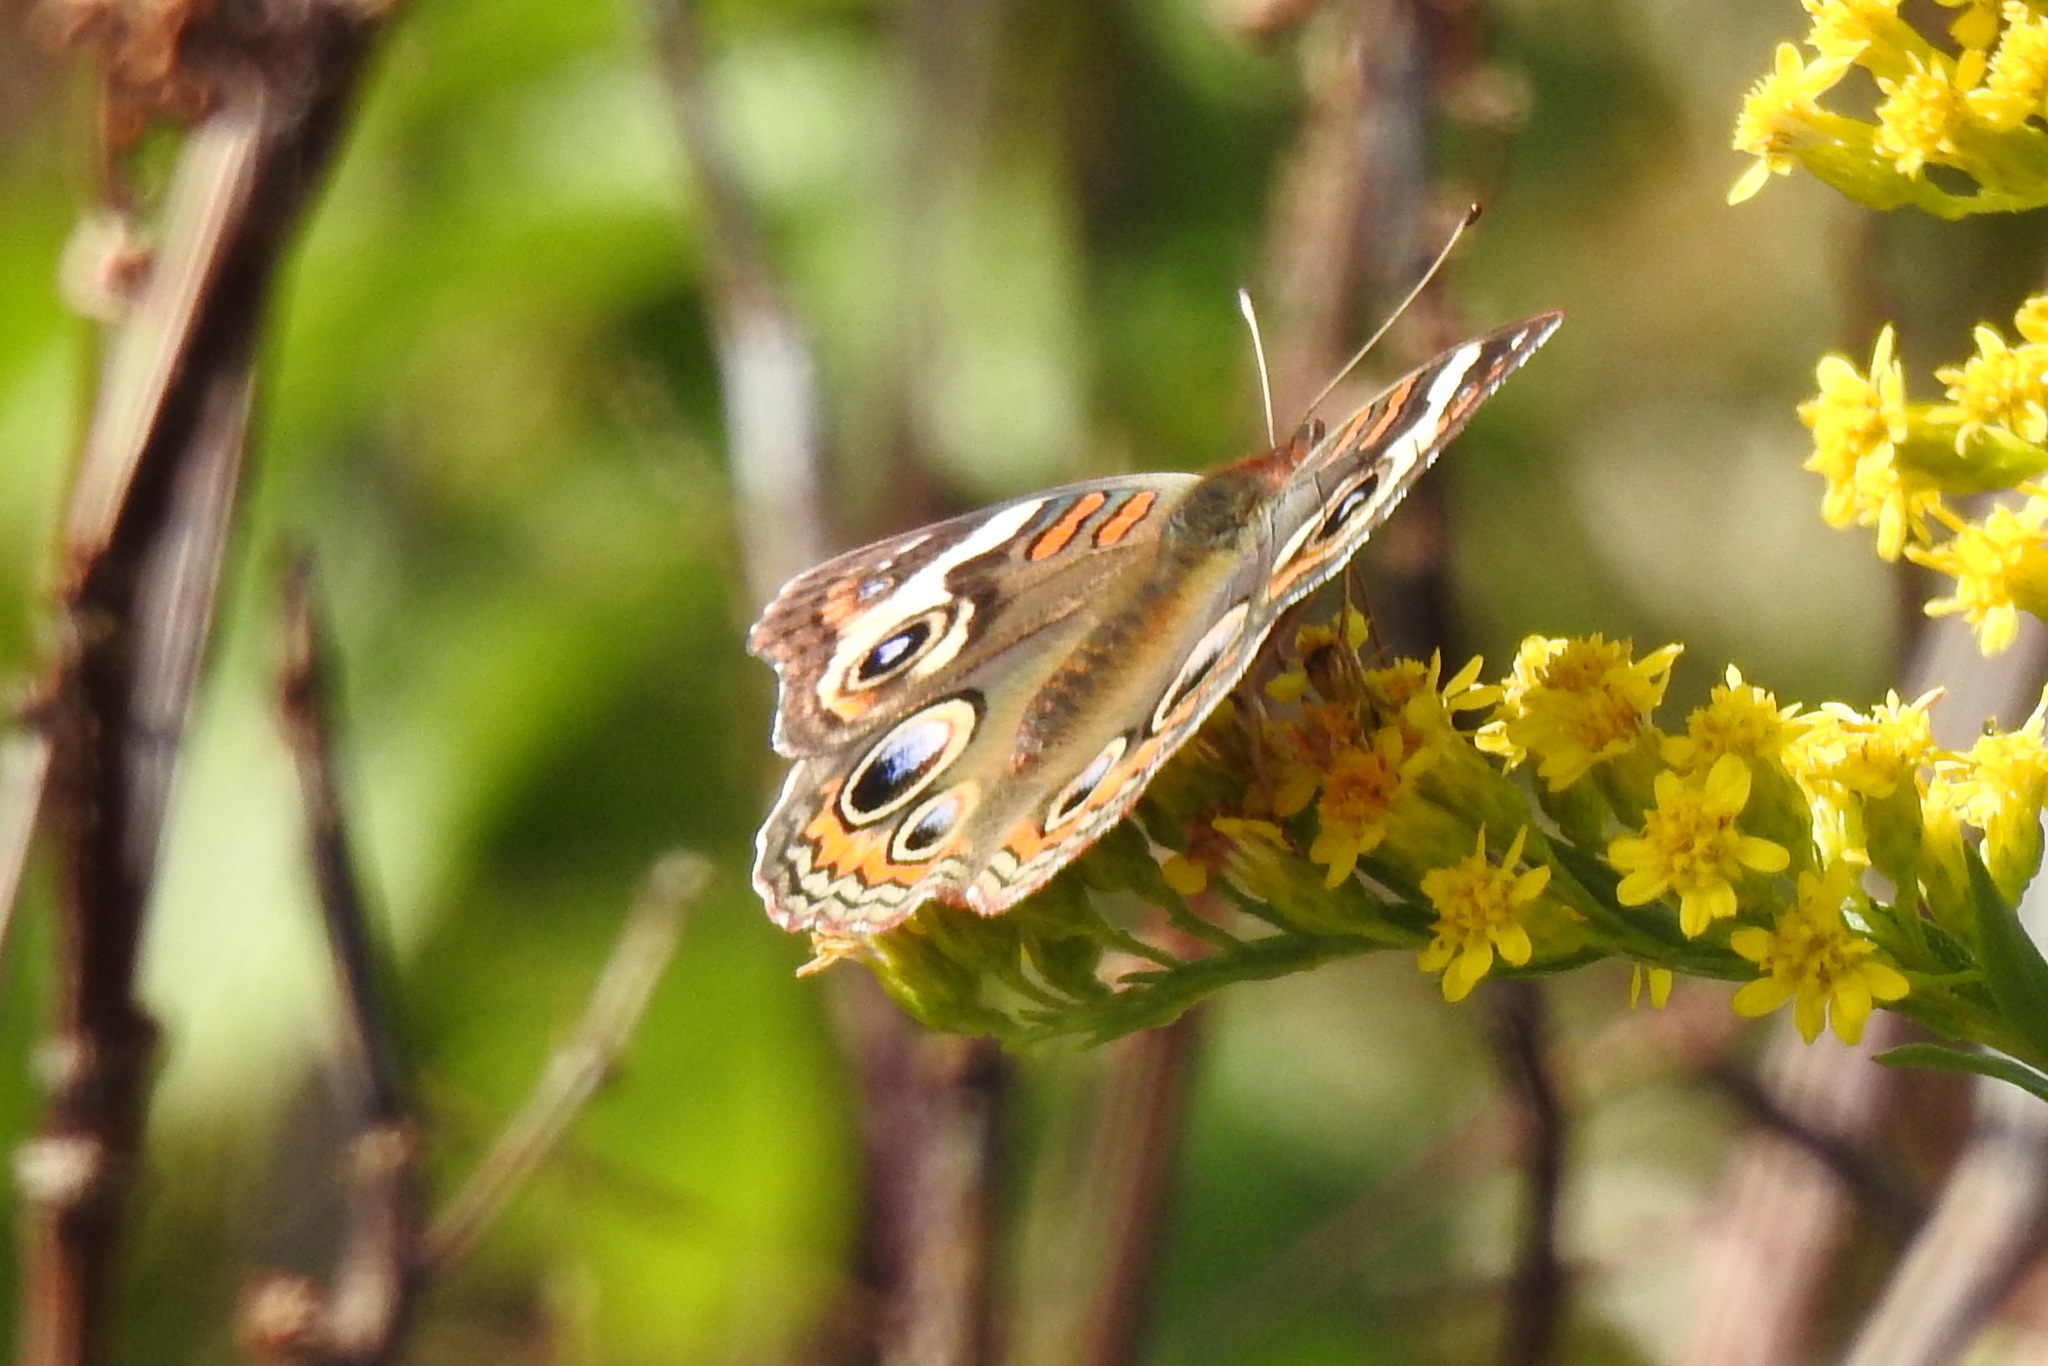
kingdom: Animalia
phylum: Arthropoda
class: Insecta
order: Lepidoptera
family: Nymphalidae
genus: Junonia
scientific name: Junonia coenia
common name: Common buckeye
